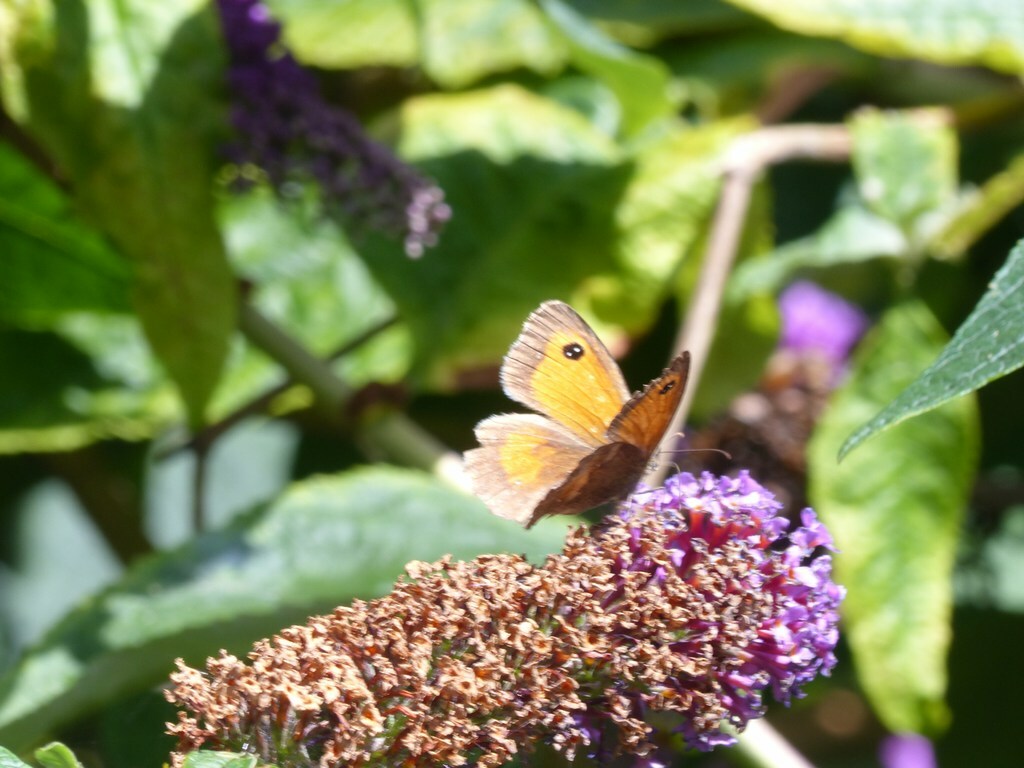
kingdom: Animalia
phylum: Arthropoda
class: Insecta
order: Lepidoptera
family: Nymphalidae
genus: Pyronia
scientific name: Pyronia tithonus
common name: Gatekeeper
